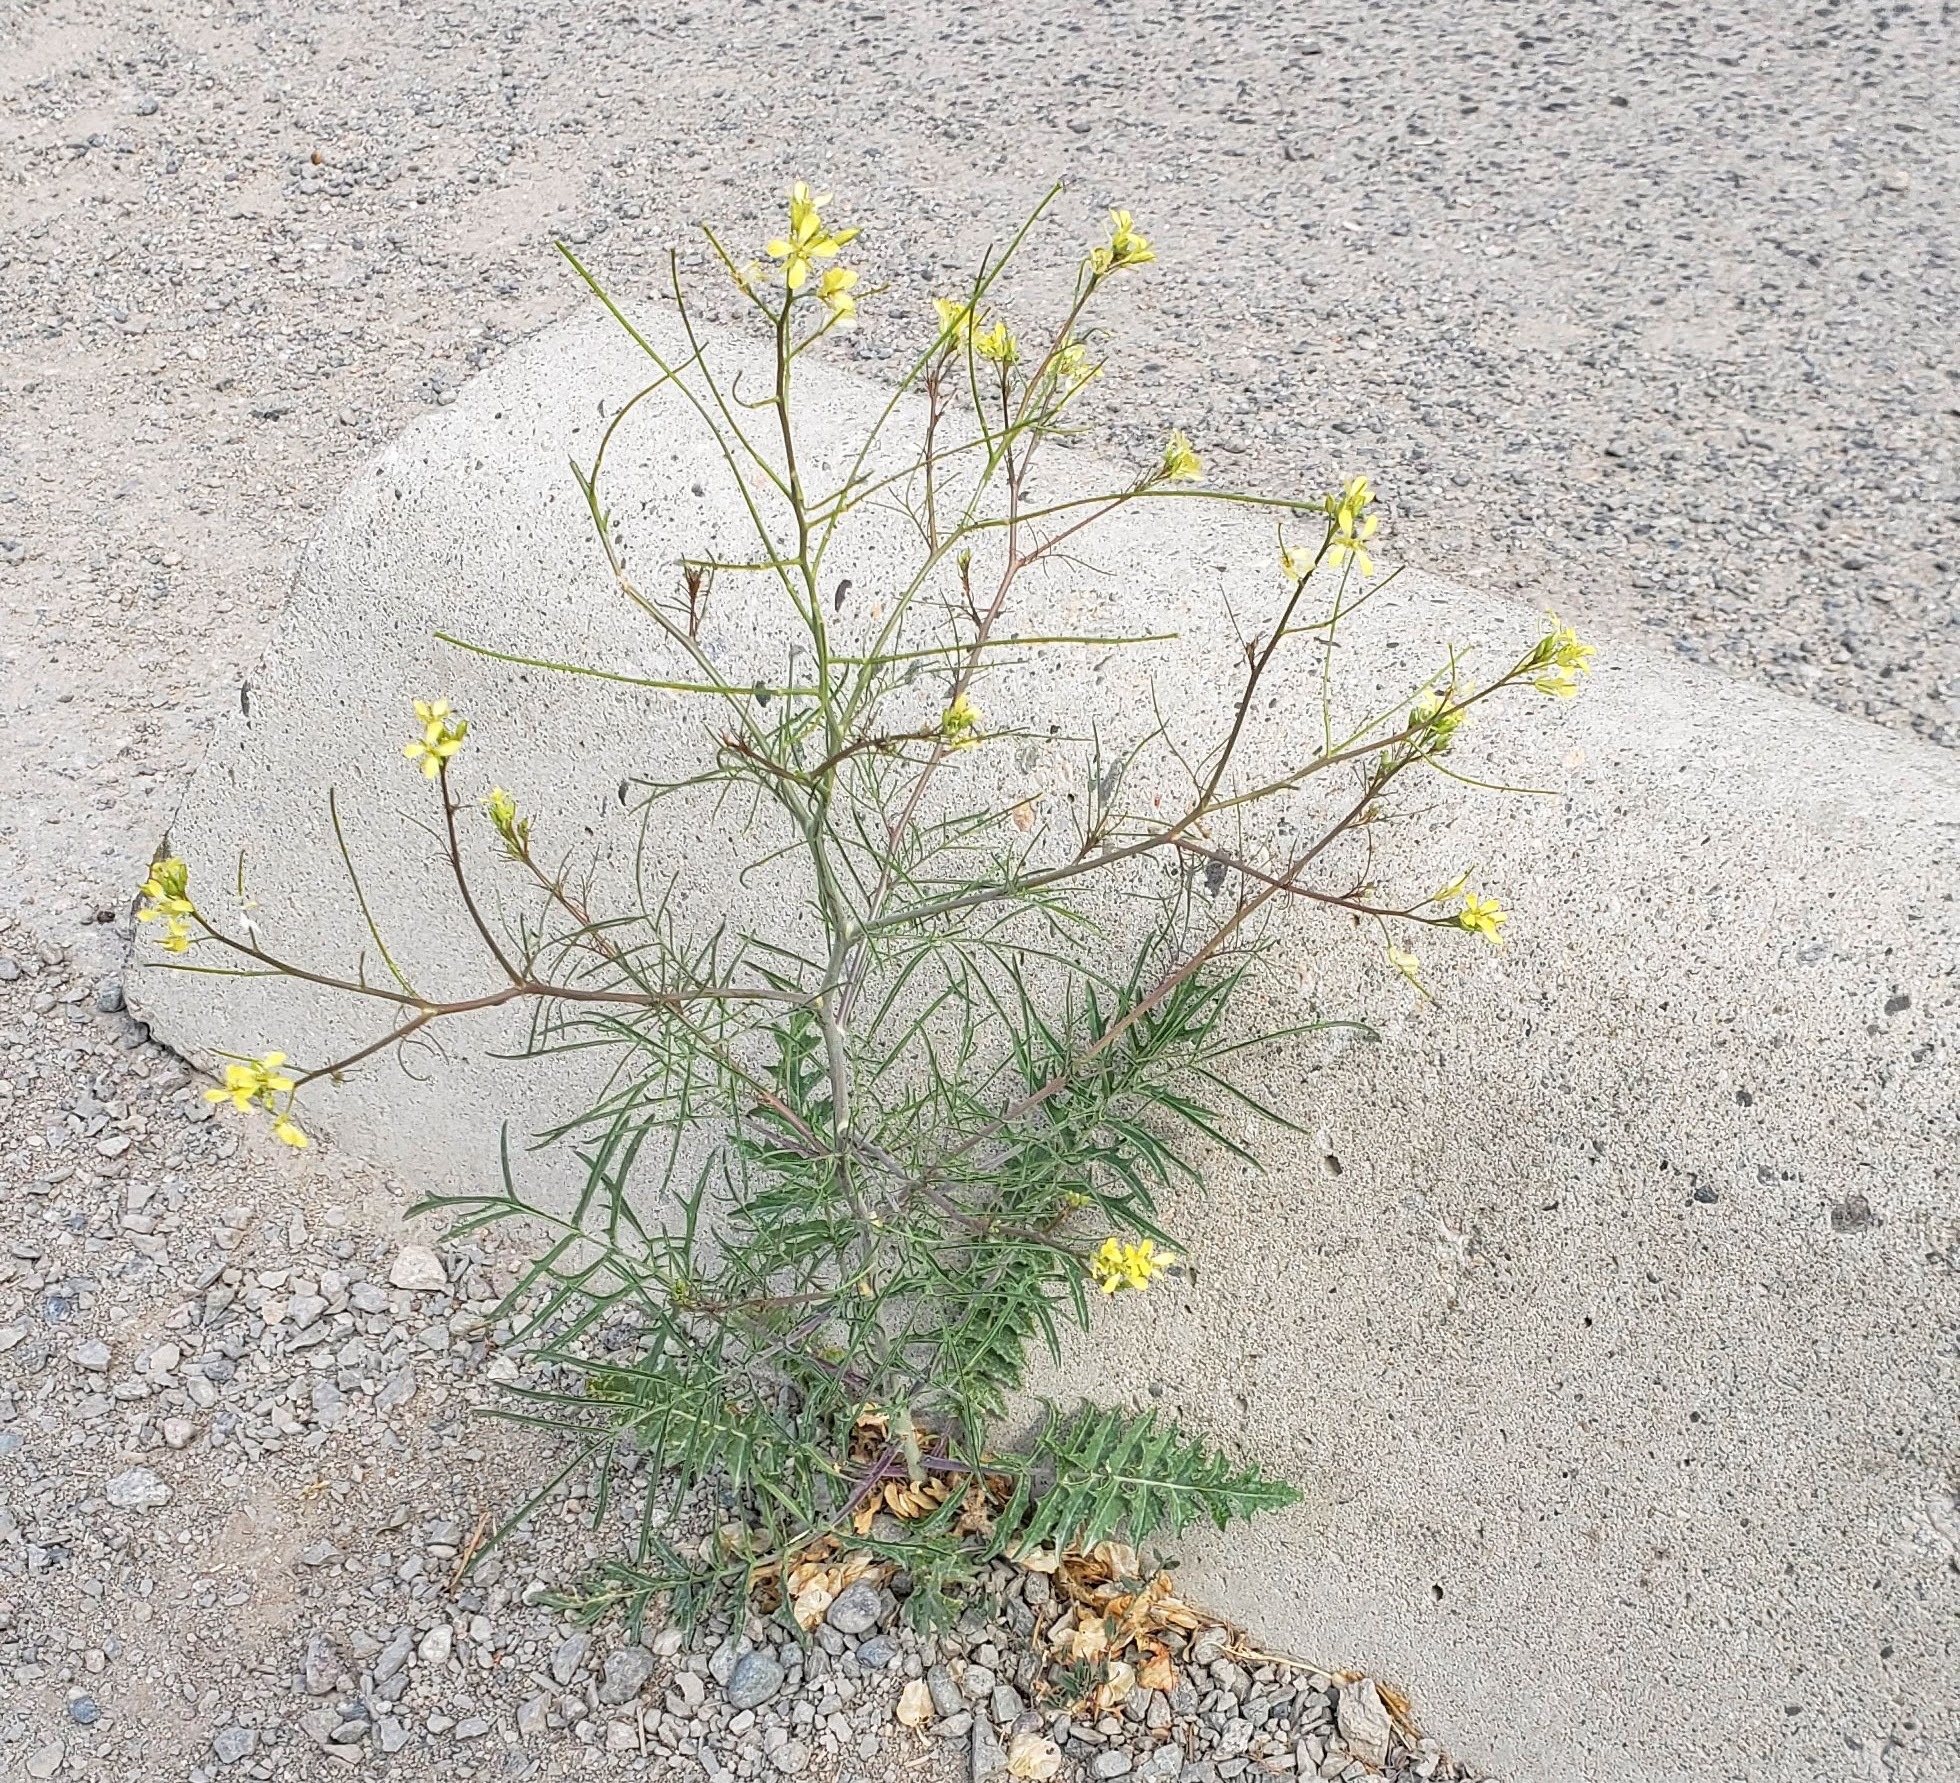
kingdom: Plantae
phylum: Tracheophyta
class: Magnoliopsida
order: Brassicales
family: Brassicaceae
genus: Sisymbrium
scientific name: Sisymbrium altissimum
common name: Tall rocket
